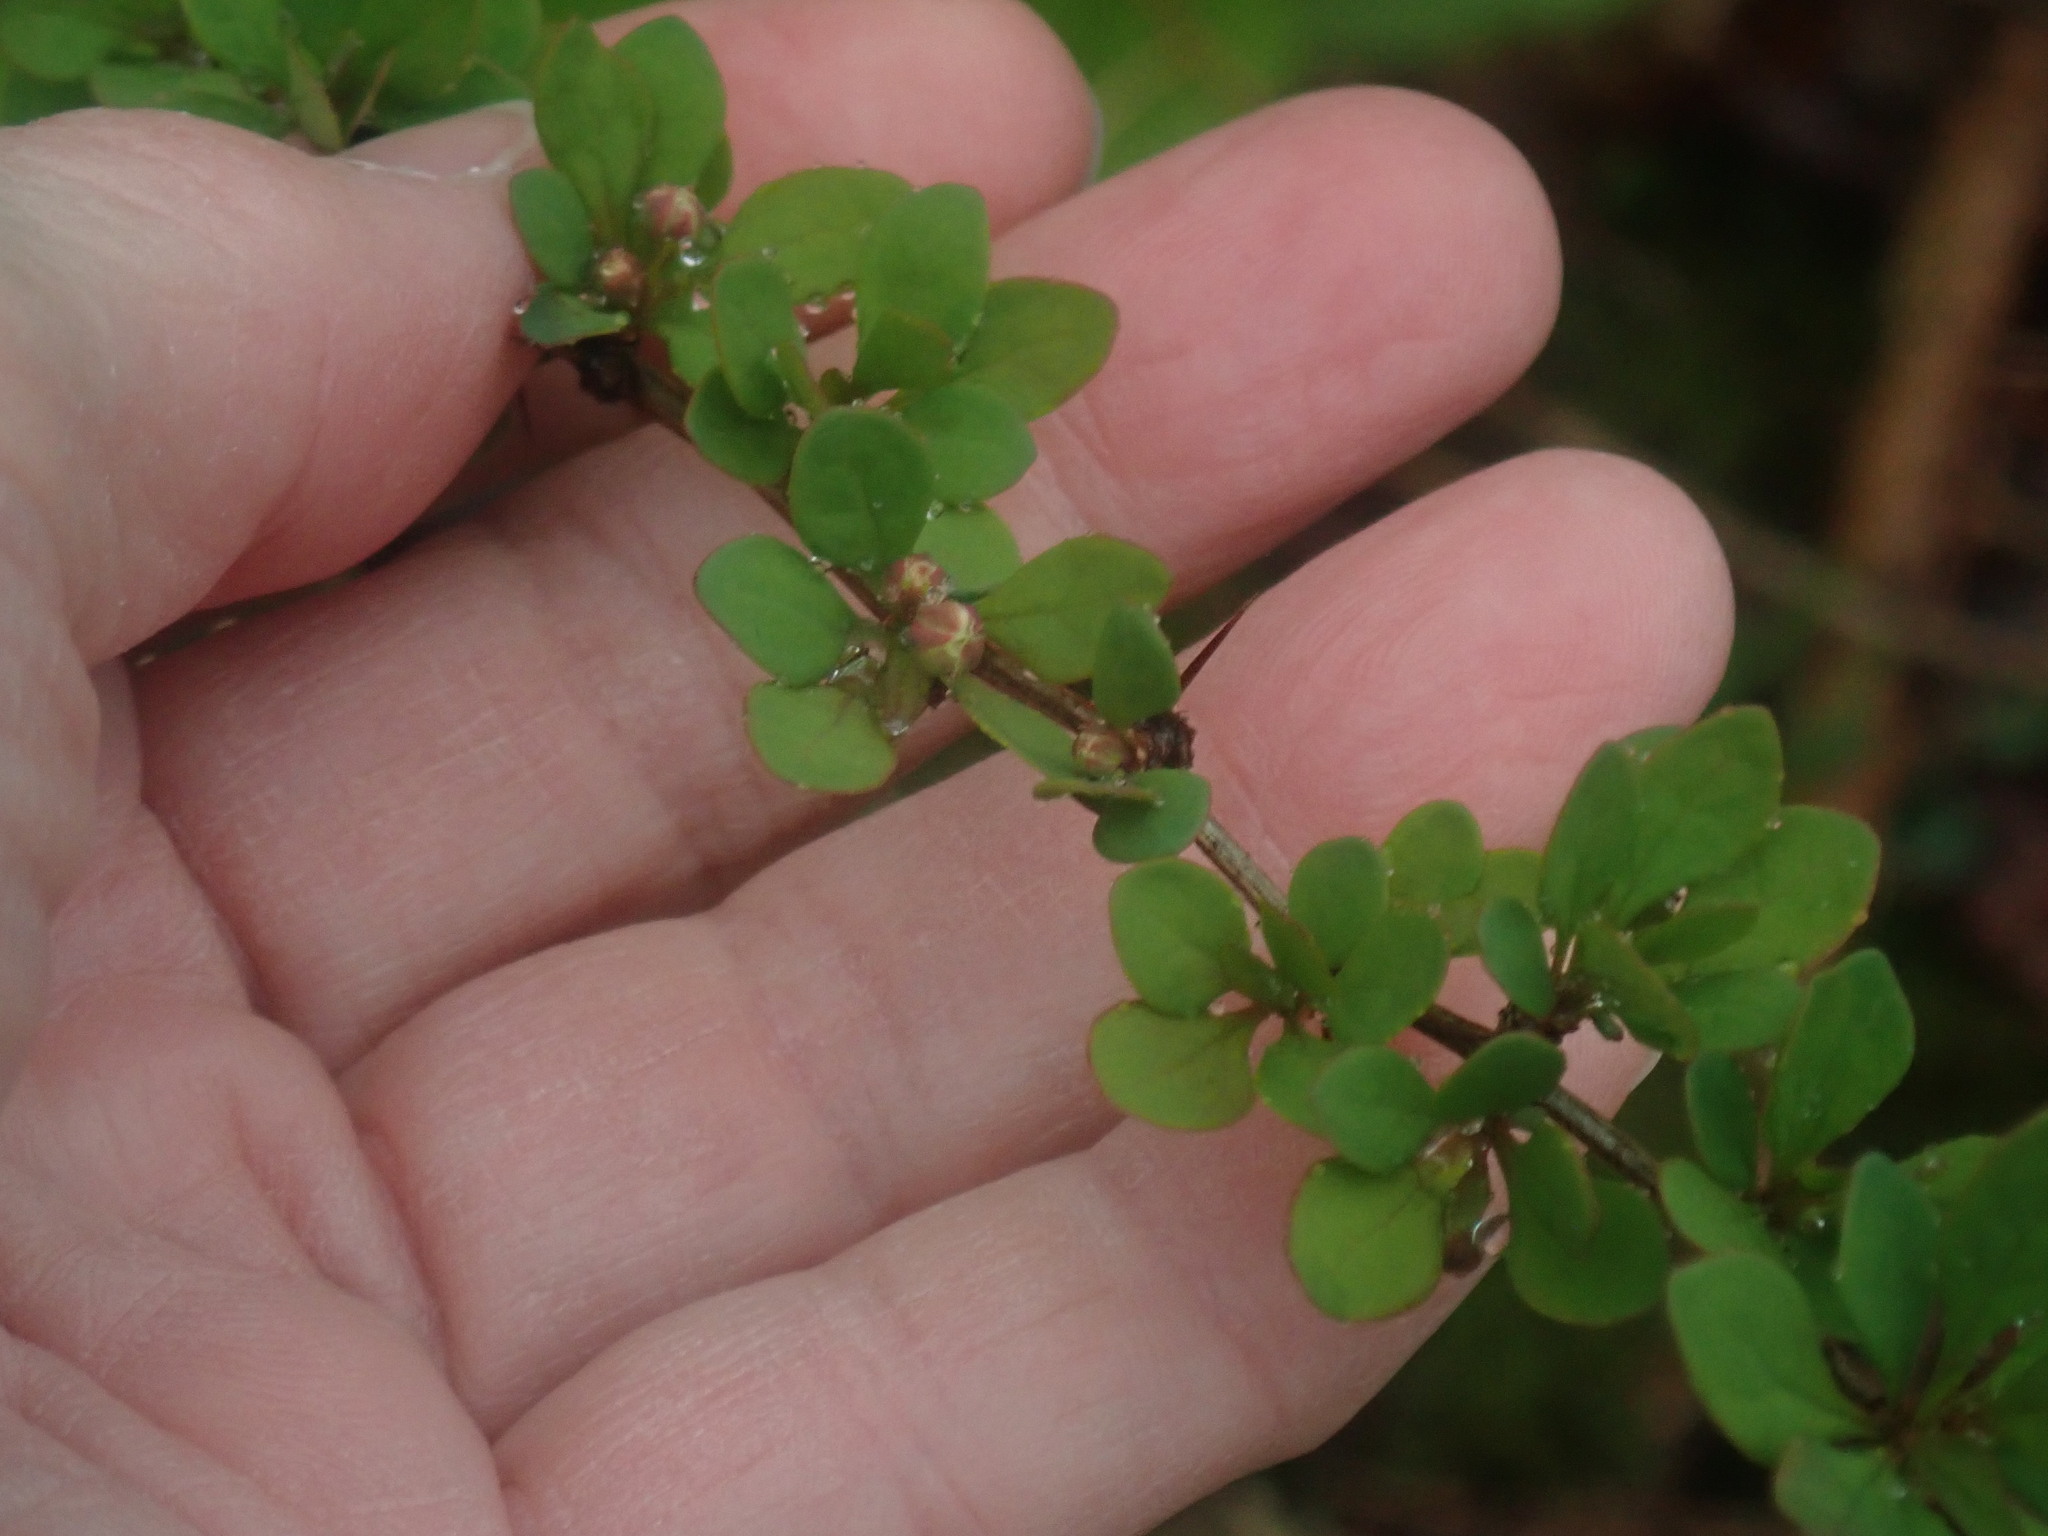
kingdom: Plantae
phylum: Tracheophyta
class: Magnoliopsida
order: Ranunculales
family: Berberidaceae
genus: Berberis
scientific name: Berberis thunbergii
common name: Japanese barberry
